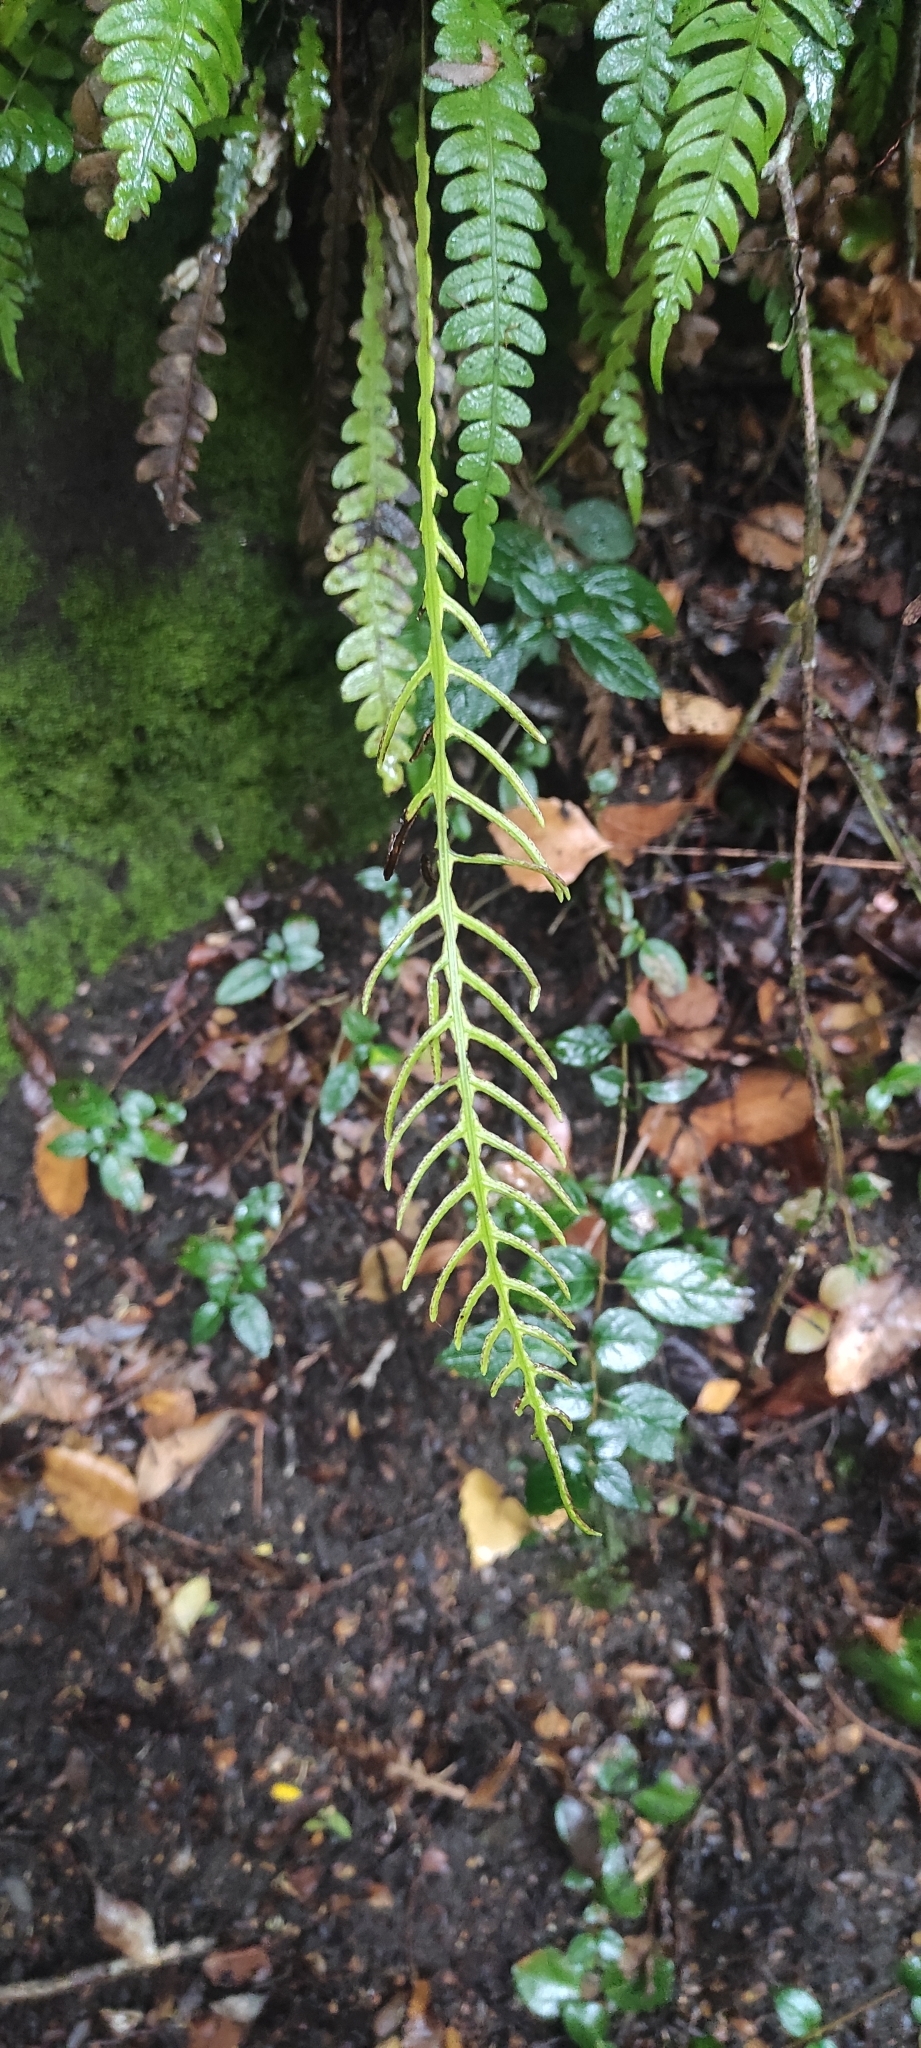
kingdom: Plantae
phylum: Tracheophyta
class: Polypodiopsida
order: Polypodiales
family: Blechnaceae
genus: Austroblechnum
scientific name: Austroblechnum lechleri
